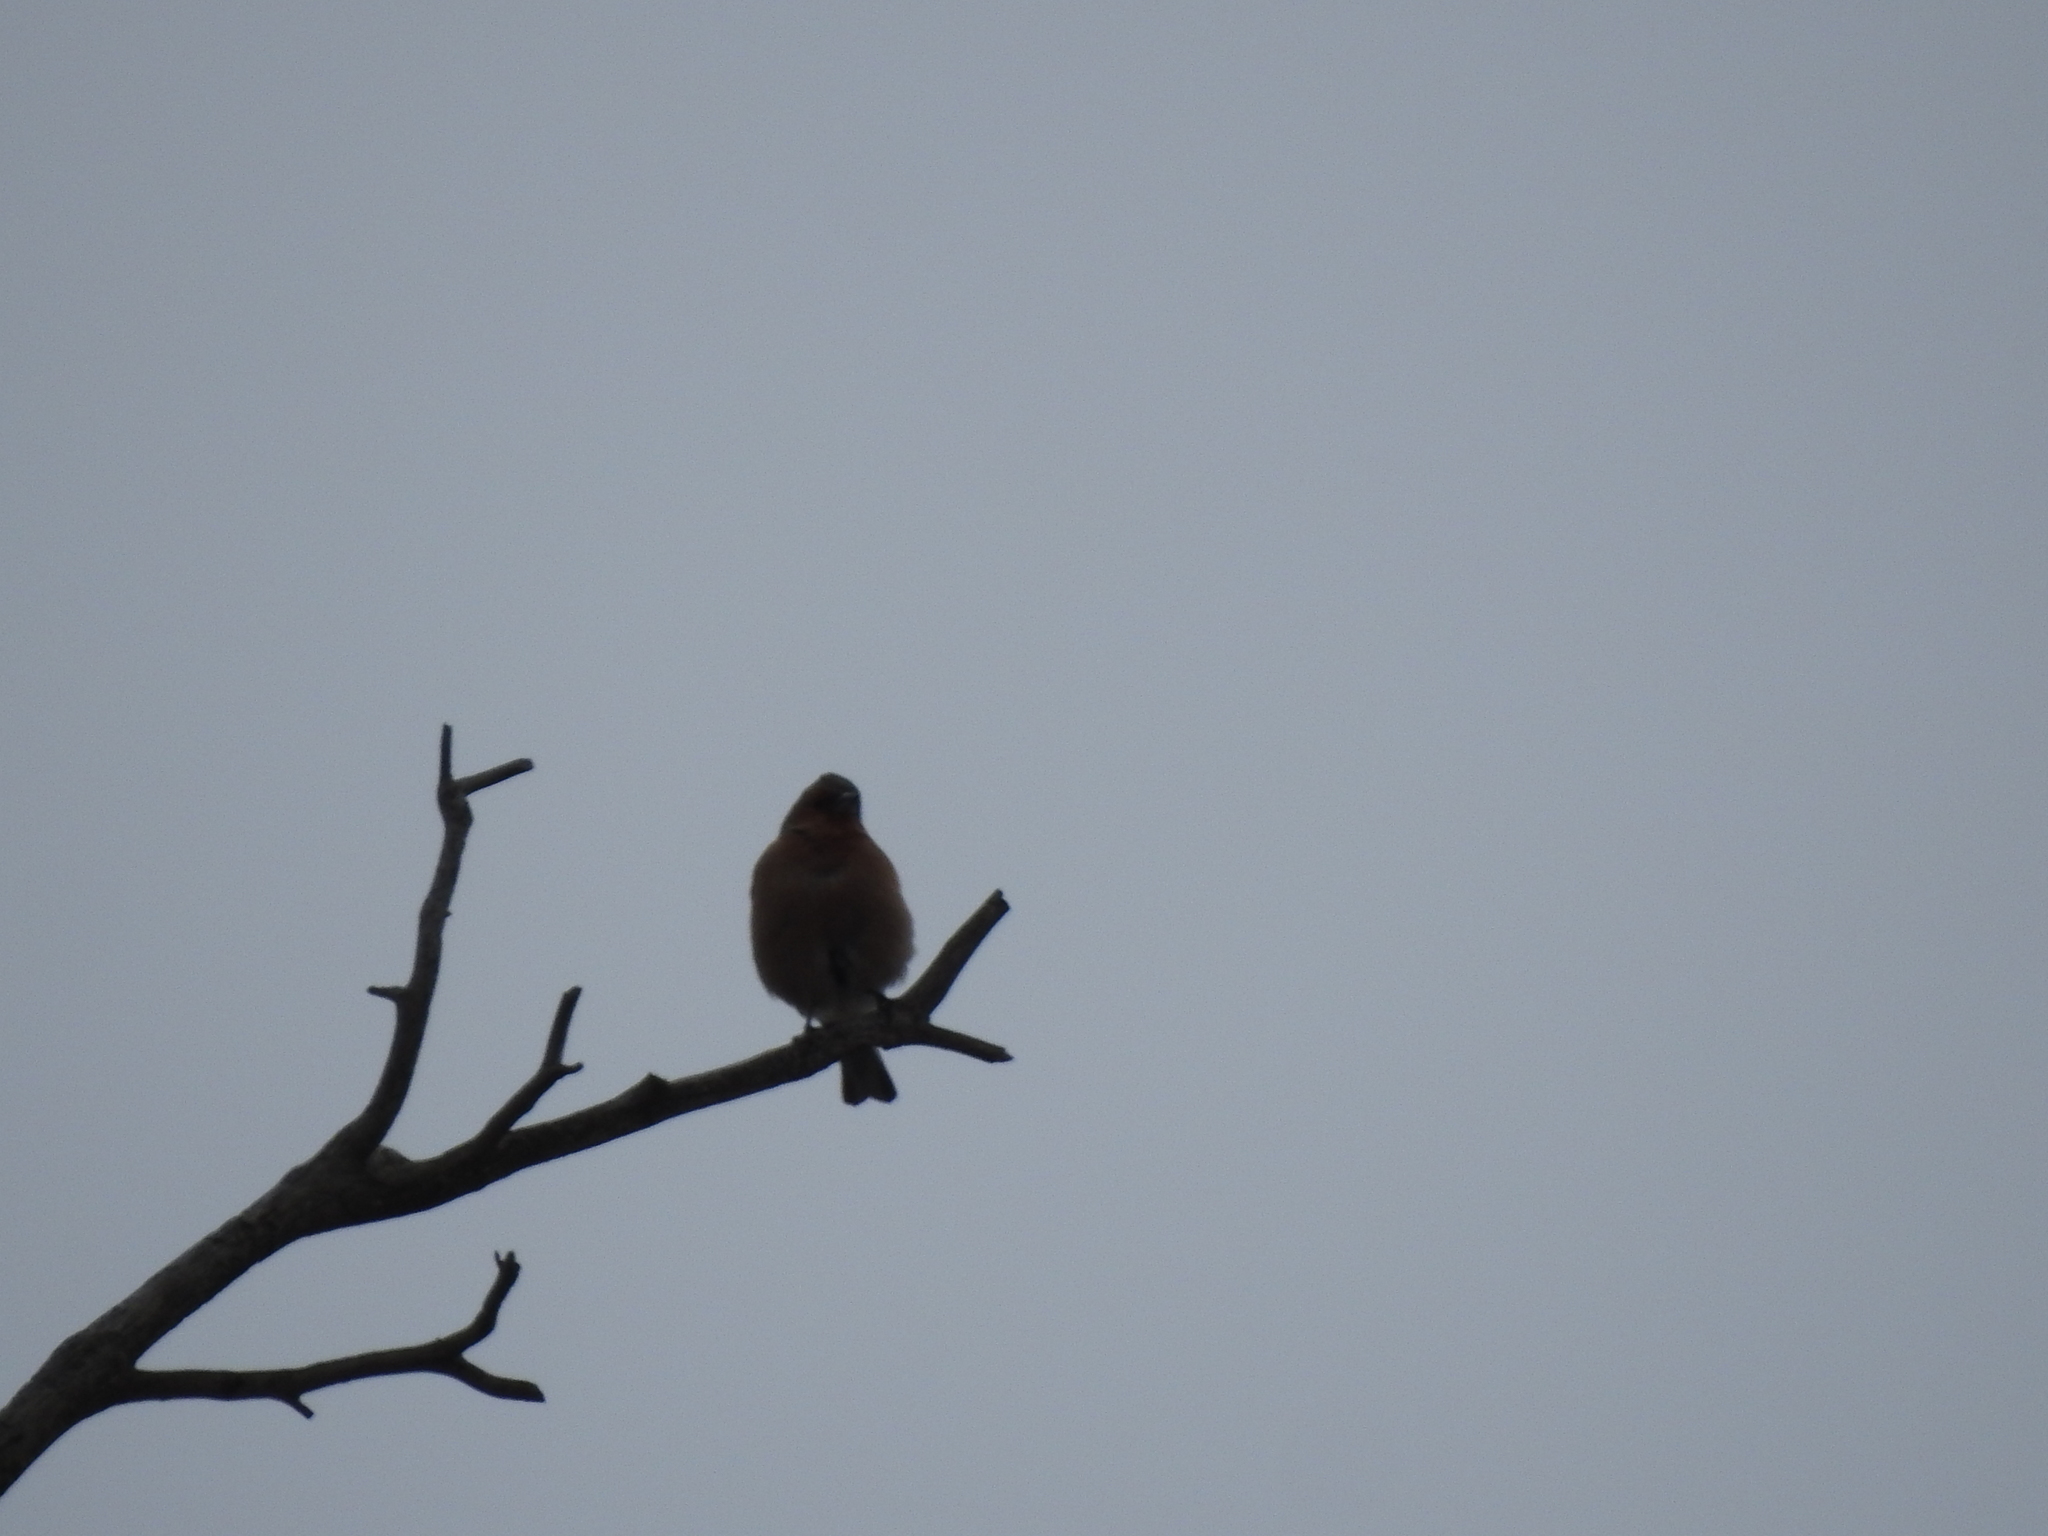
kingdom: Animalia
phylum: Chordata
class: Aves
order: Passeriformes
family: Fringillidae
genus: Fringilla
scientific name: Fringilla coelebs
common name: Common chaffinch
